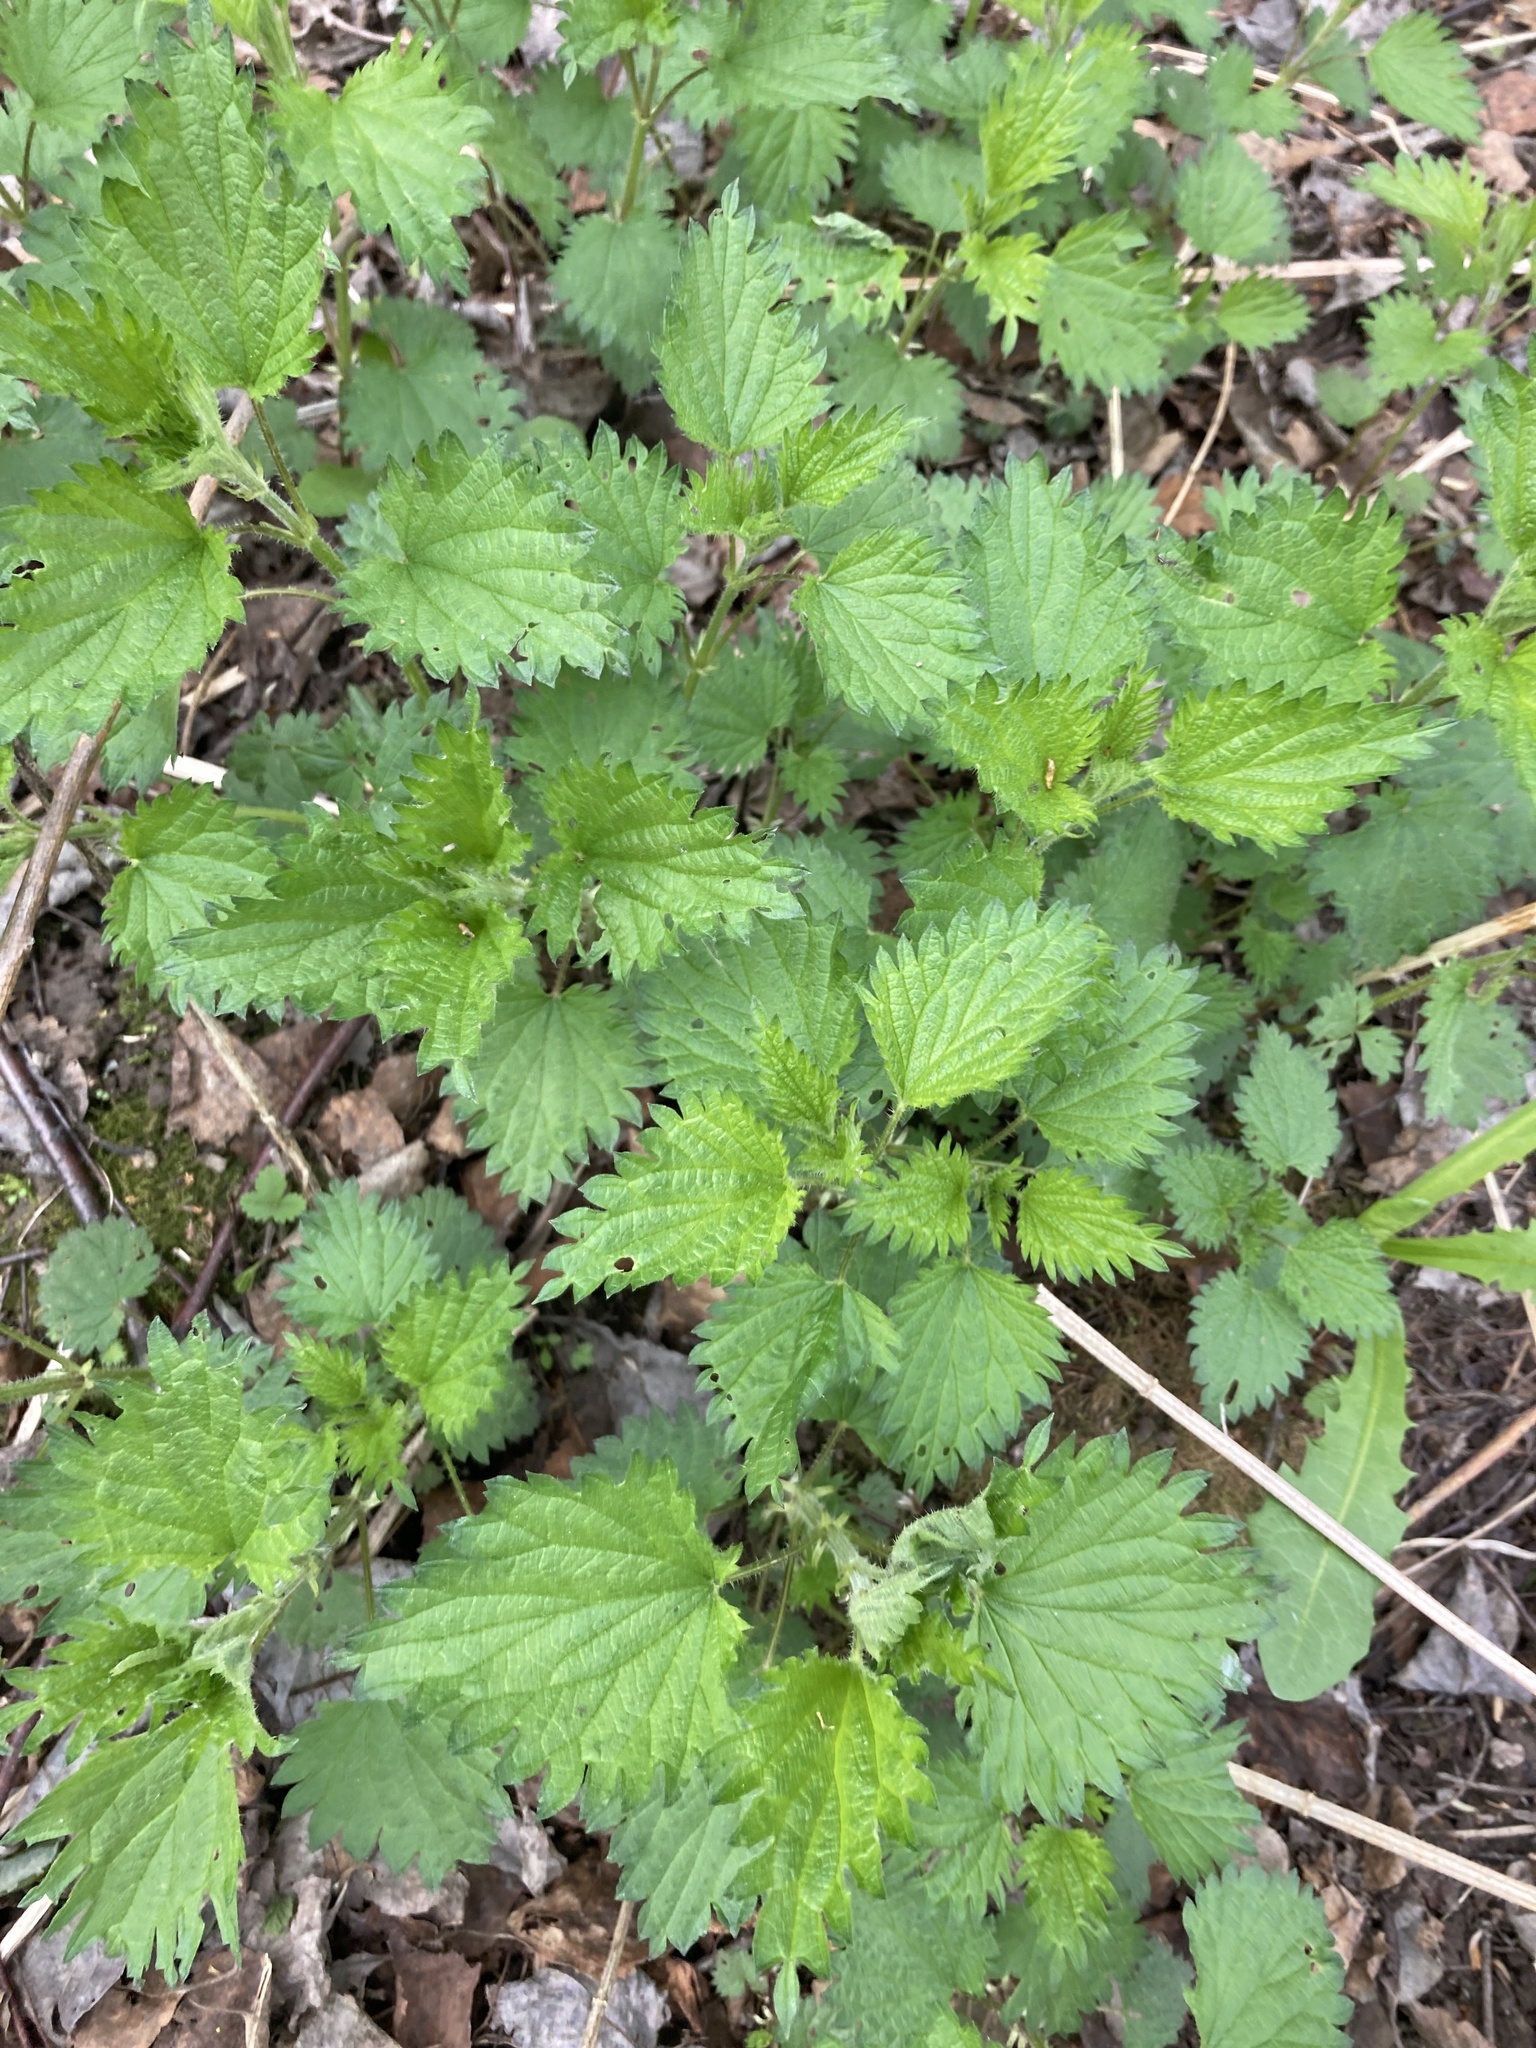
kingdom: Plantae
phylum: Tracheophyta
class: Magnoliopsida
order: Rosales
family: Urticaceae
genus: Urtica
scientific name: Urtica dioica
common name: Common nettle
